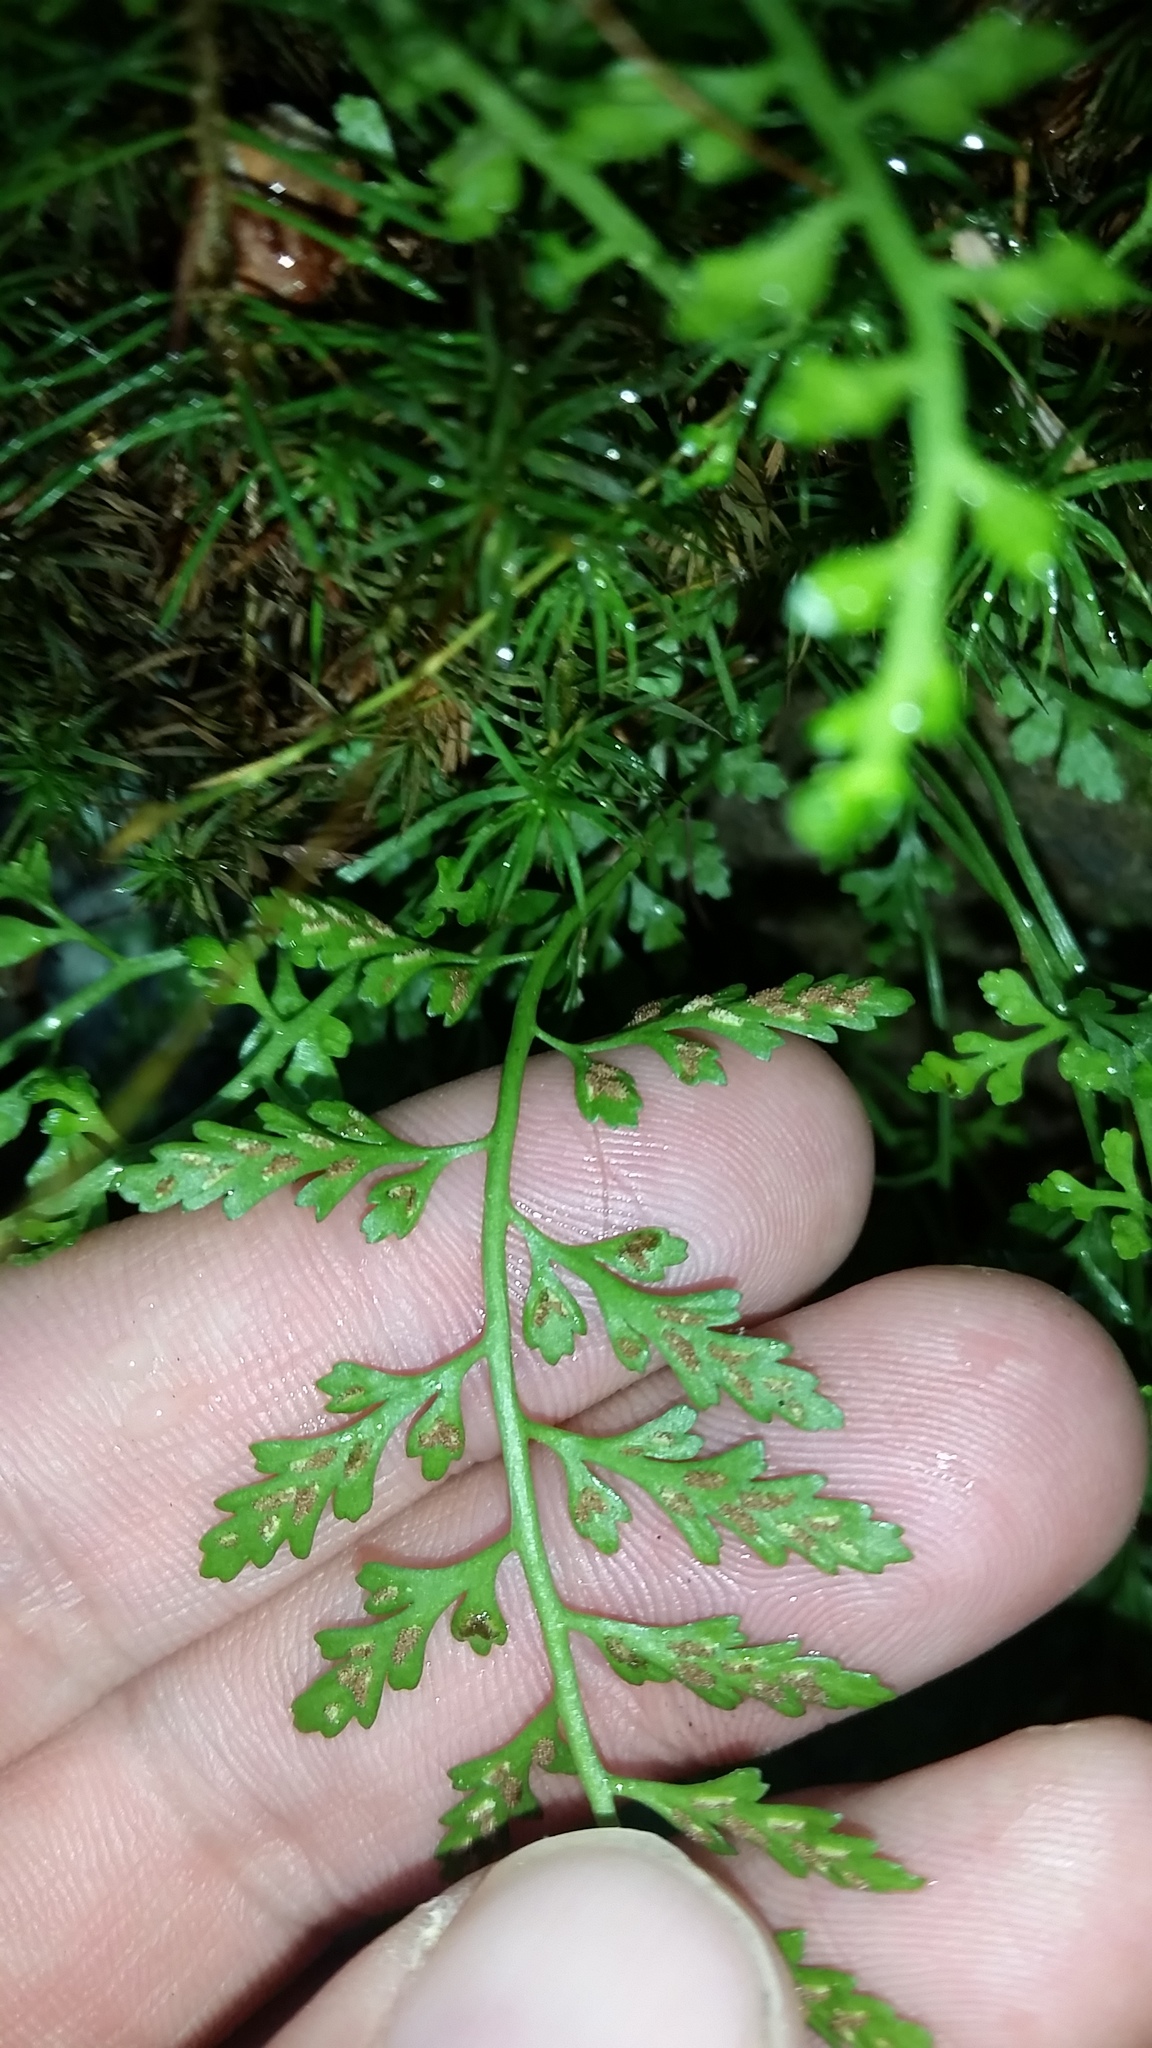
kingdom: Plantae
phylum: Tracheophyta
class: Polypodiopsida
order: Polypodiales
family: Aspleniaceae
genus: Asplenium
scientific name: Asplenium montanum
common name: Mountain spleenwort
